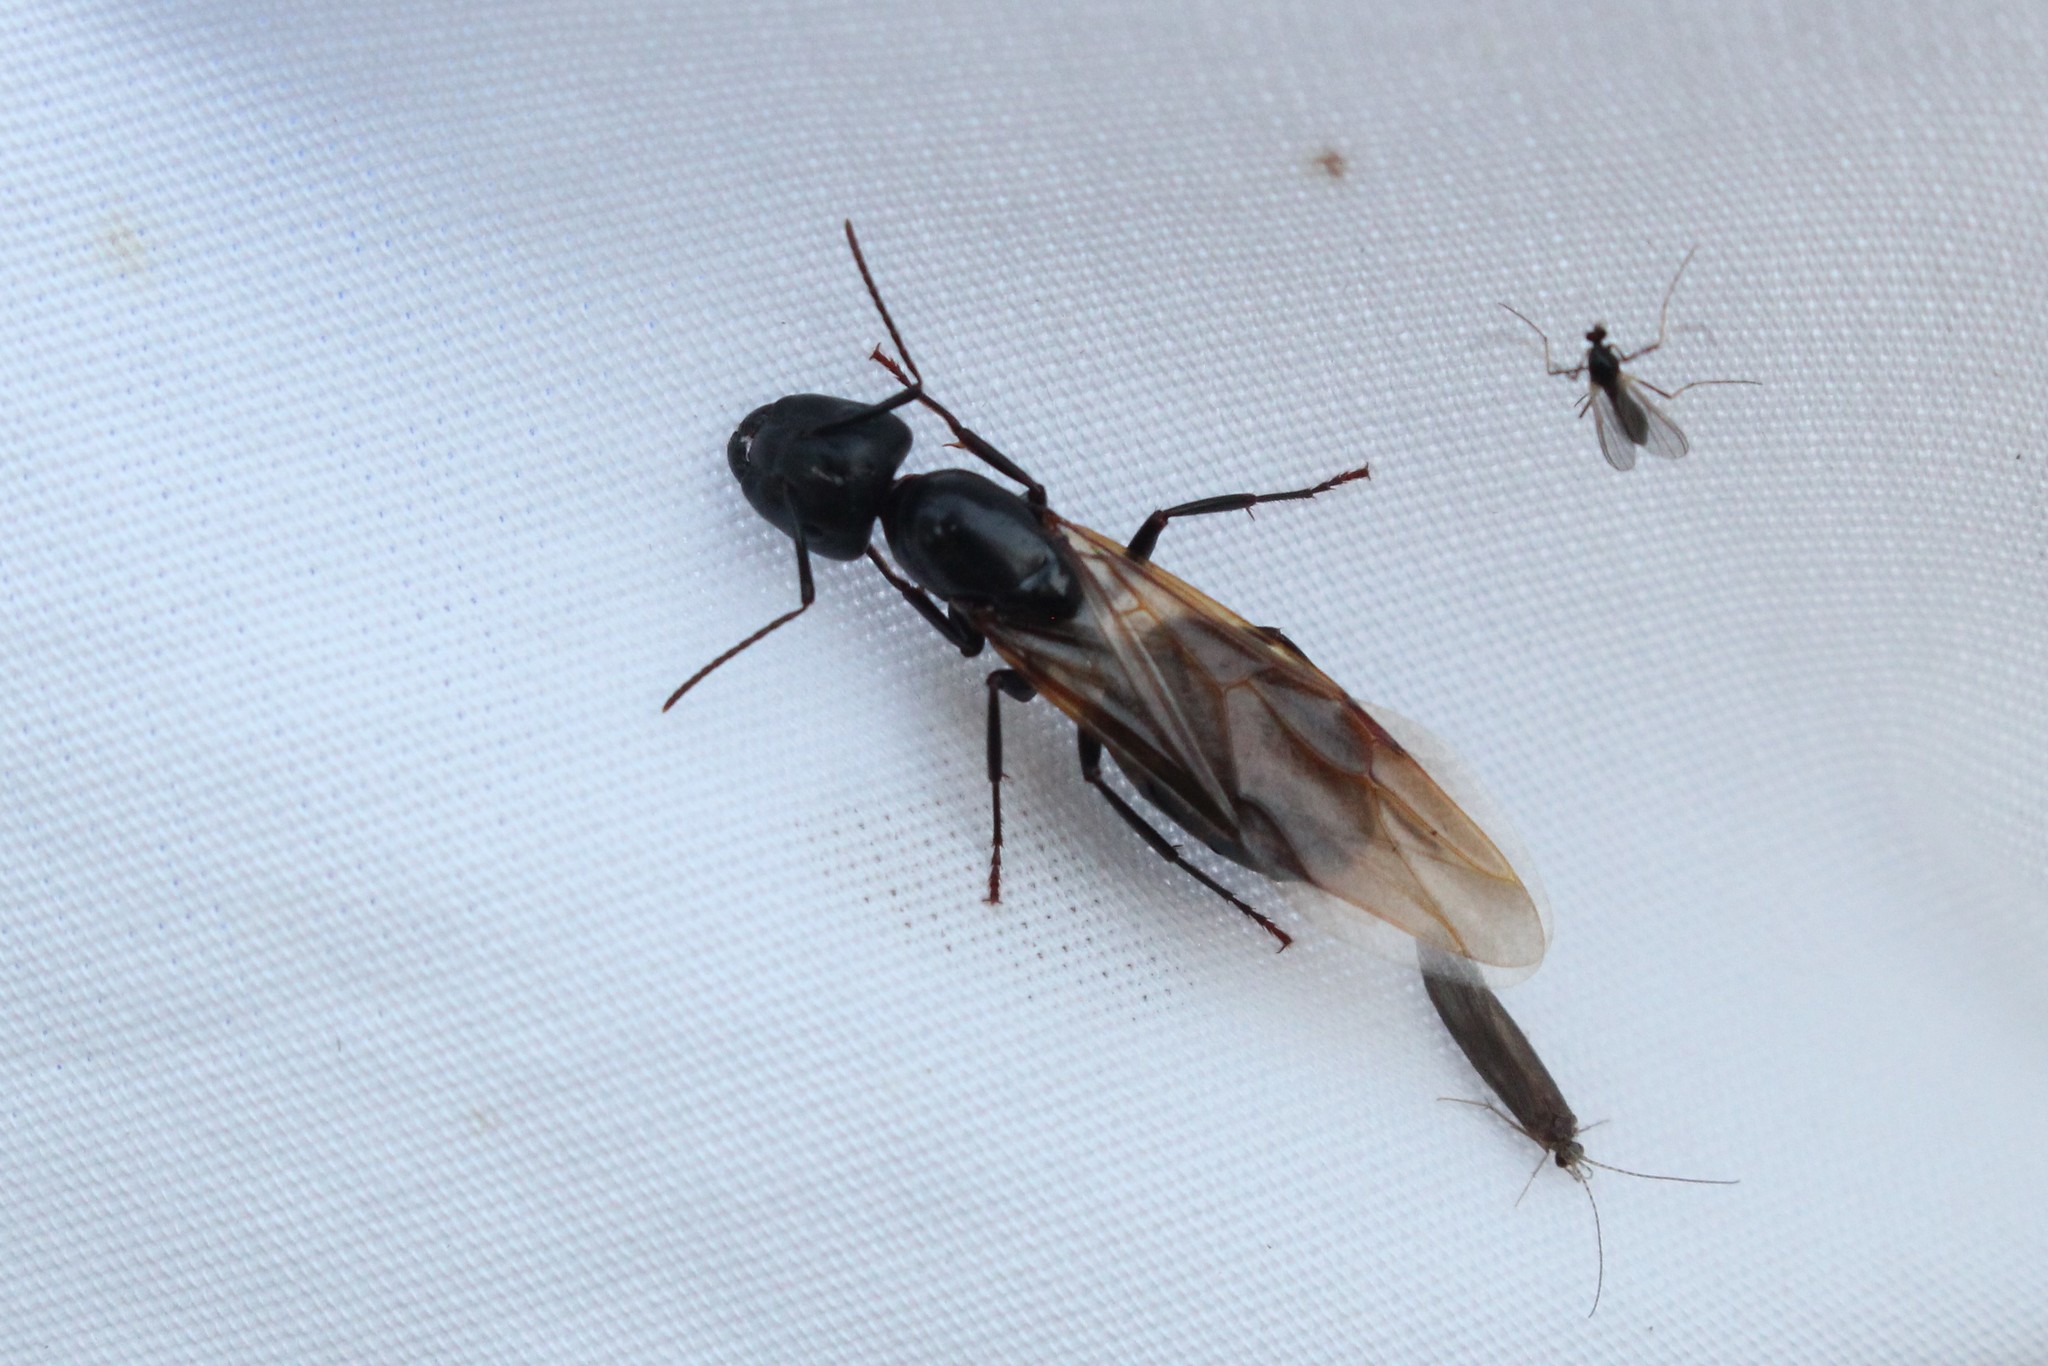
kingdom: Animalia
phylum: Arthropoda
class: Insecta
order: Hymenoptera
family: Formicidae
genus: Camponotus
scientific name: Camponotus pennsylvanicus
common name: Black carpenter ant
